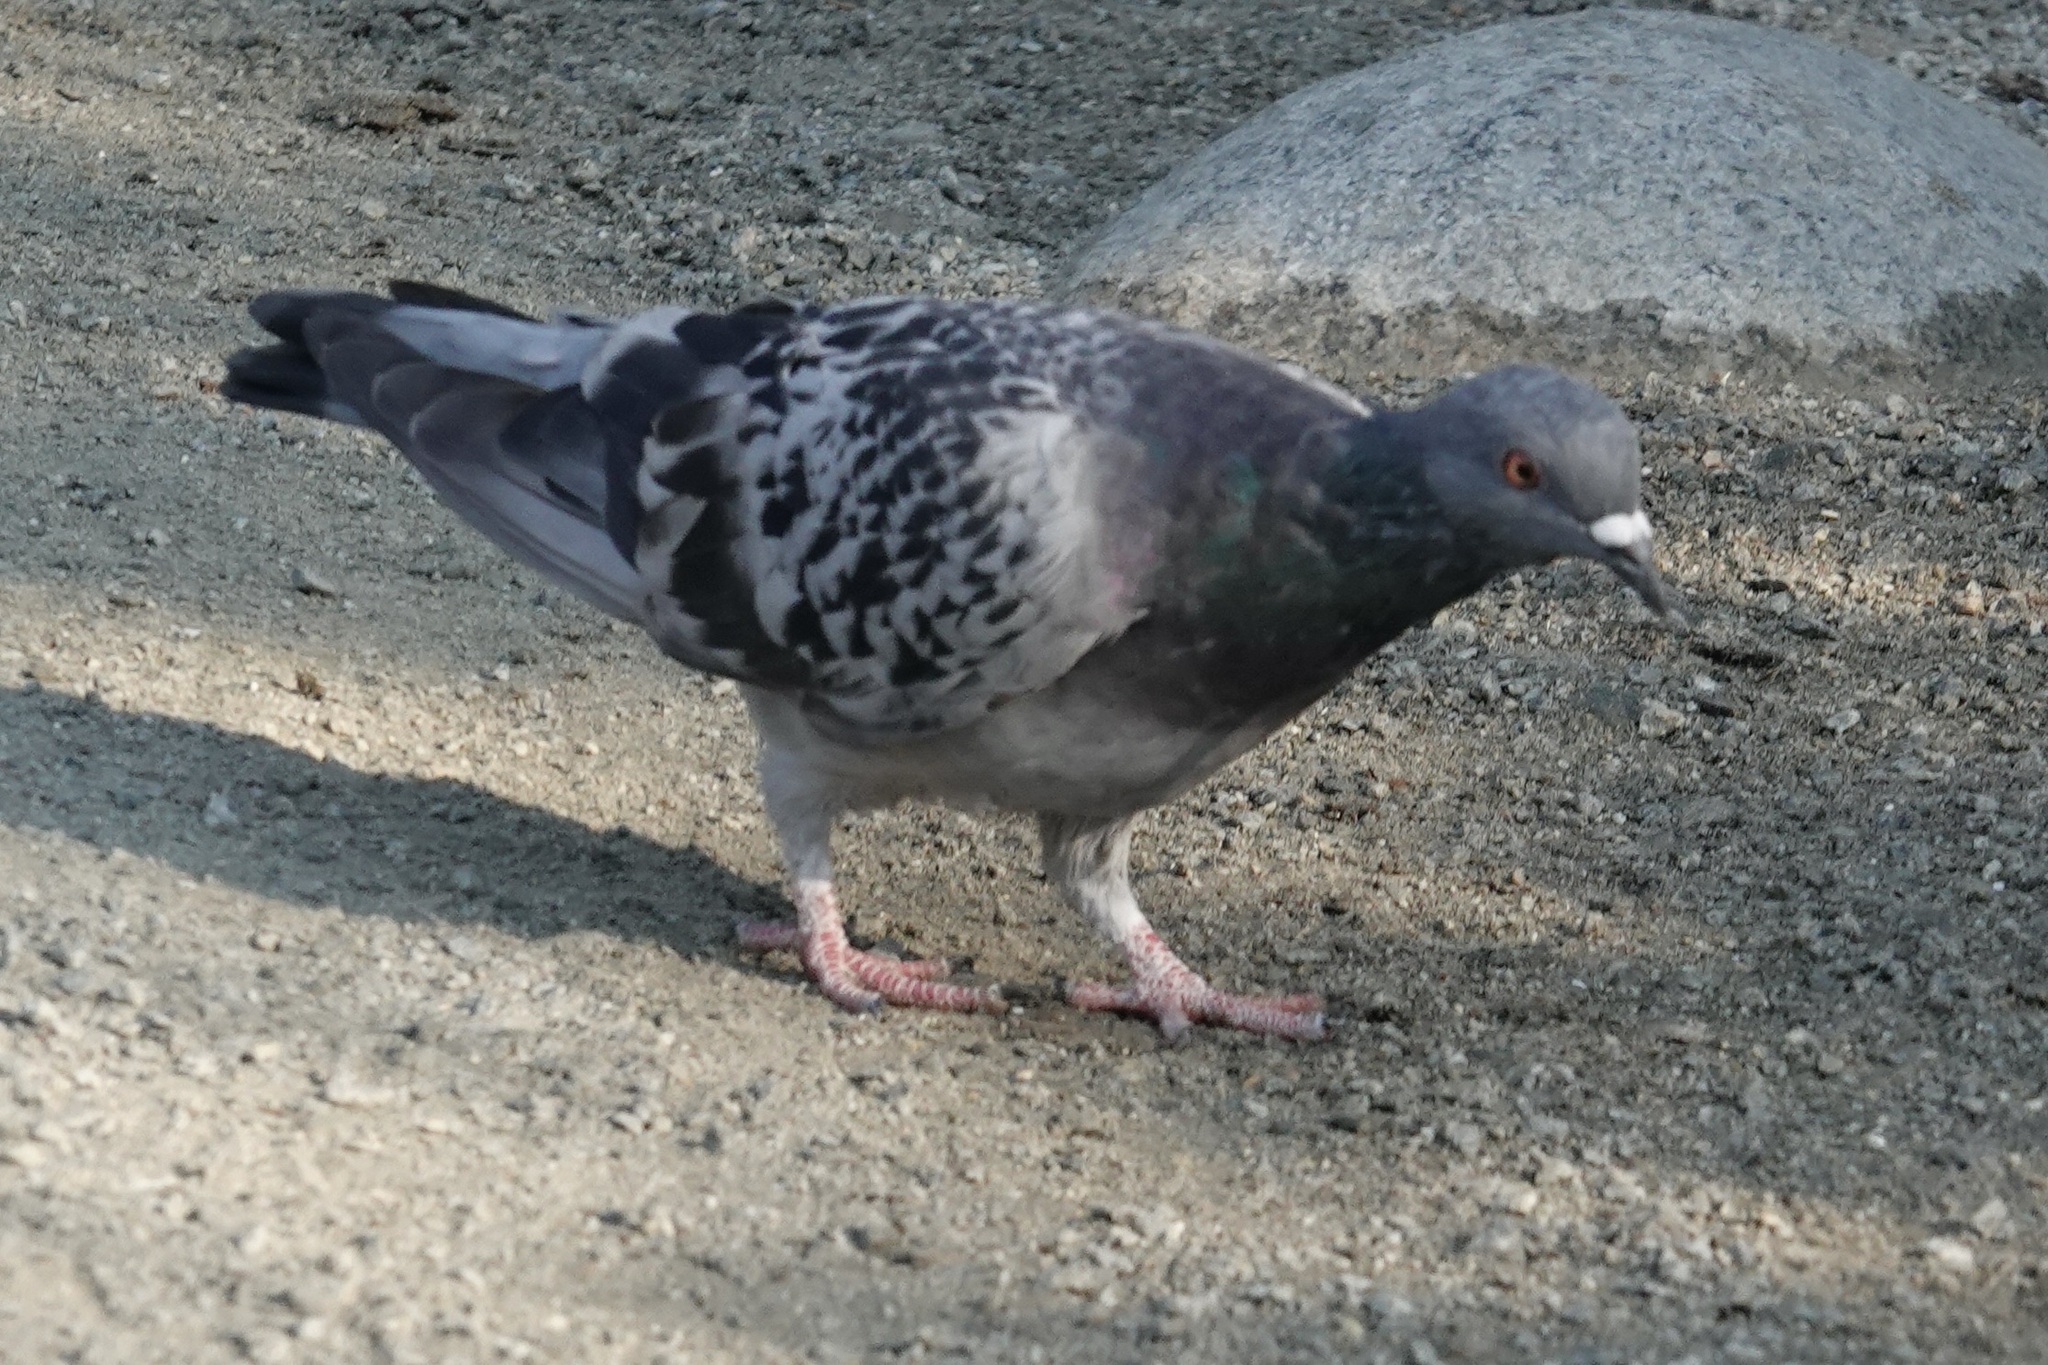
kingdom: Animalia
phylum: Chordata
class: Aves
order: Columbiformes
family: Columbidae
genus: Columba
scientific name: Columba livia
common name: Rock pigeon
